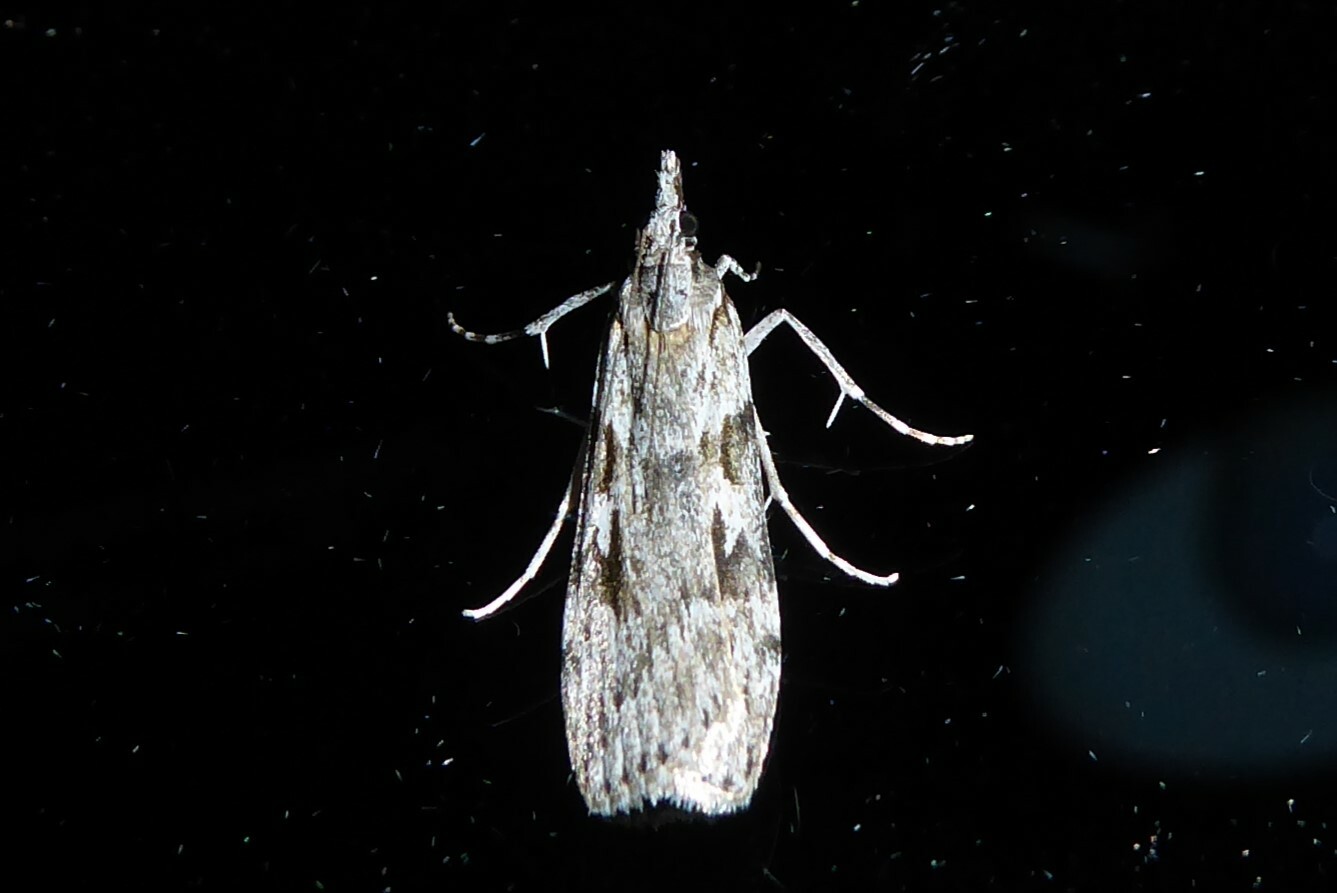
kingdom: Animalia
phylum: Arthropoda
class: Insecta
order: Lepidoptera
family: Crambidae
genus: Scoparia
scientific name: Scoparia halopis
